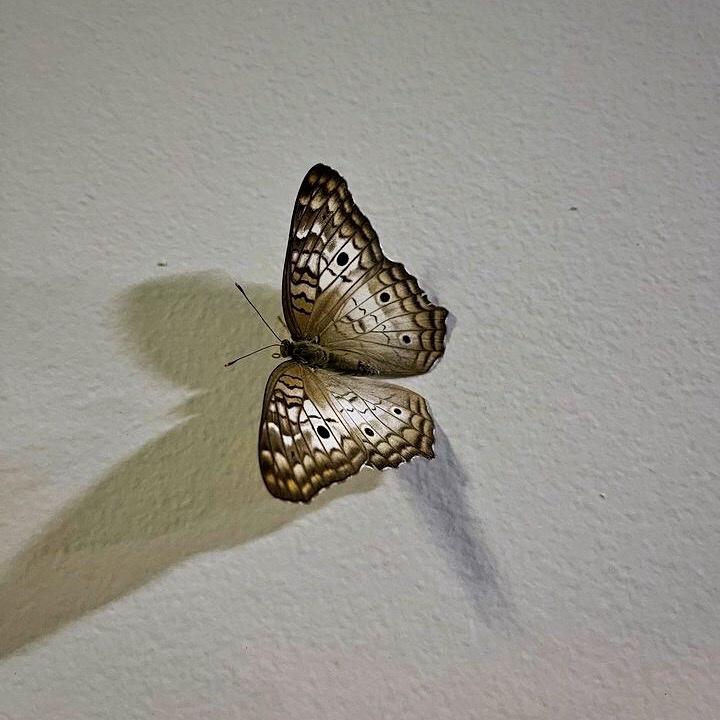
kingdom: Animalia
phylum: Arthropoda
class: Insecta
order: Lepidoptera
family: Nymphalidae
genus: Anartia
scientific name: Anartia jatrophae
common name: White peacock
